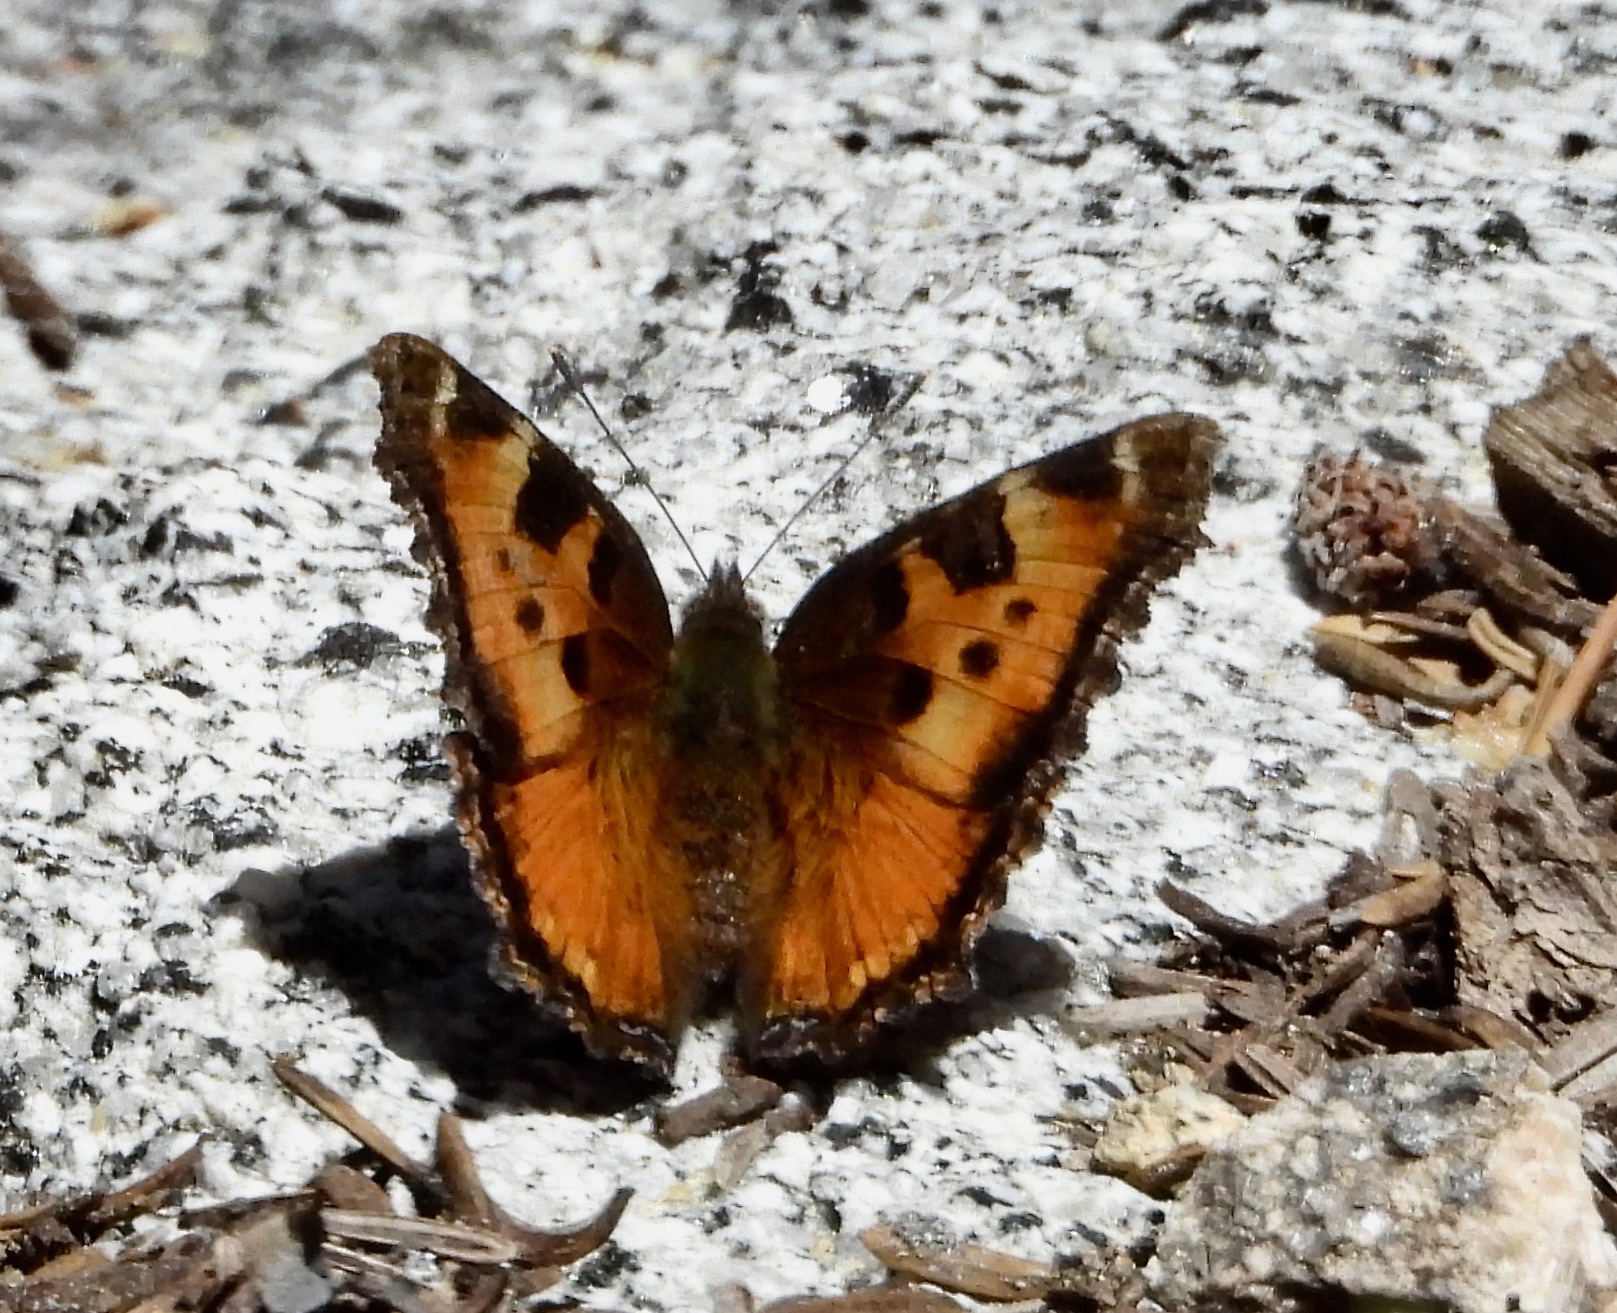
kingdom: Animalia
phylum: Arthropoda
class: Insecta
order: Lepidoptera
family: Nymphalidae
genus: Nymphalis
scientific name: Nymphalis californica
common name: California tortoiseshell
